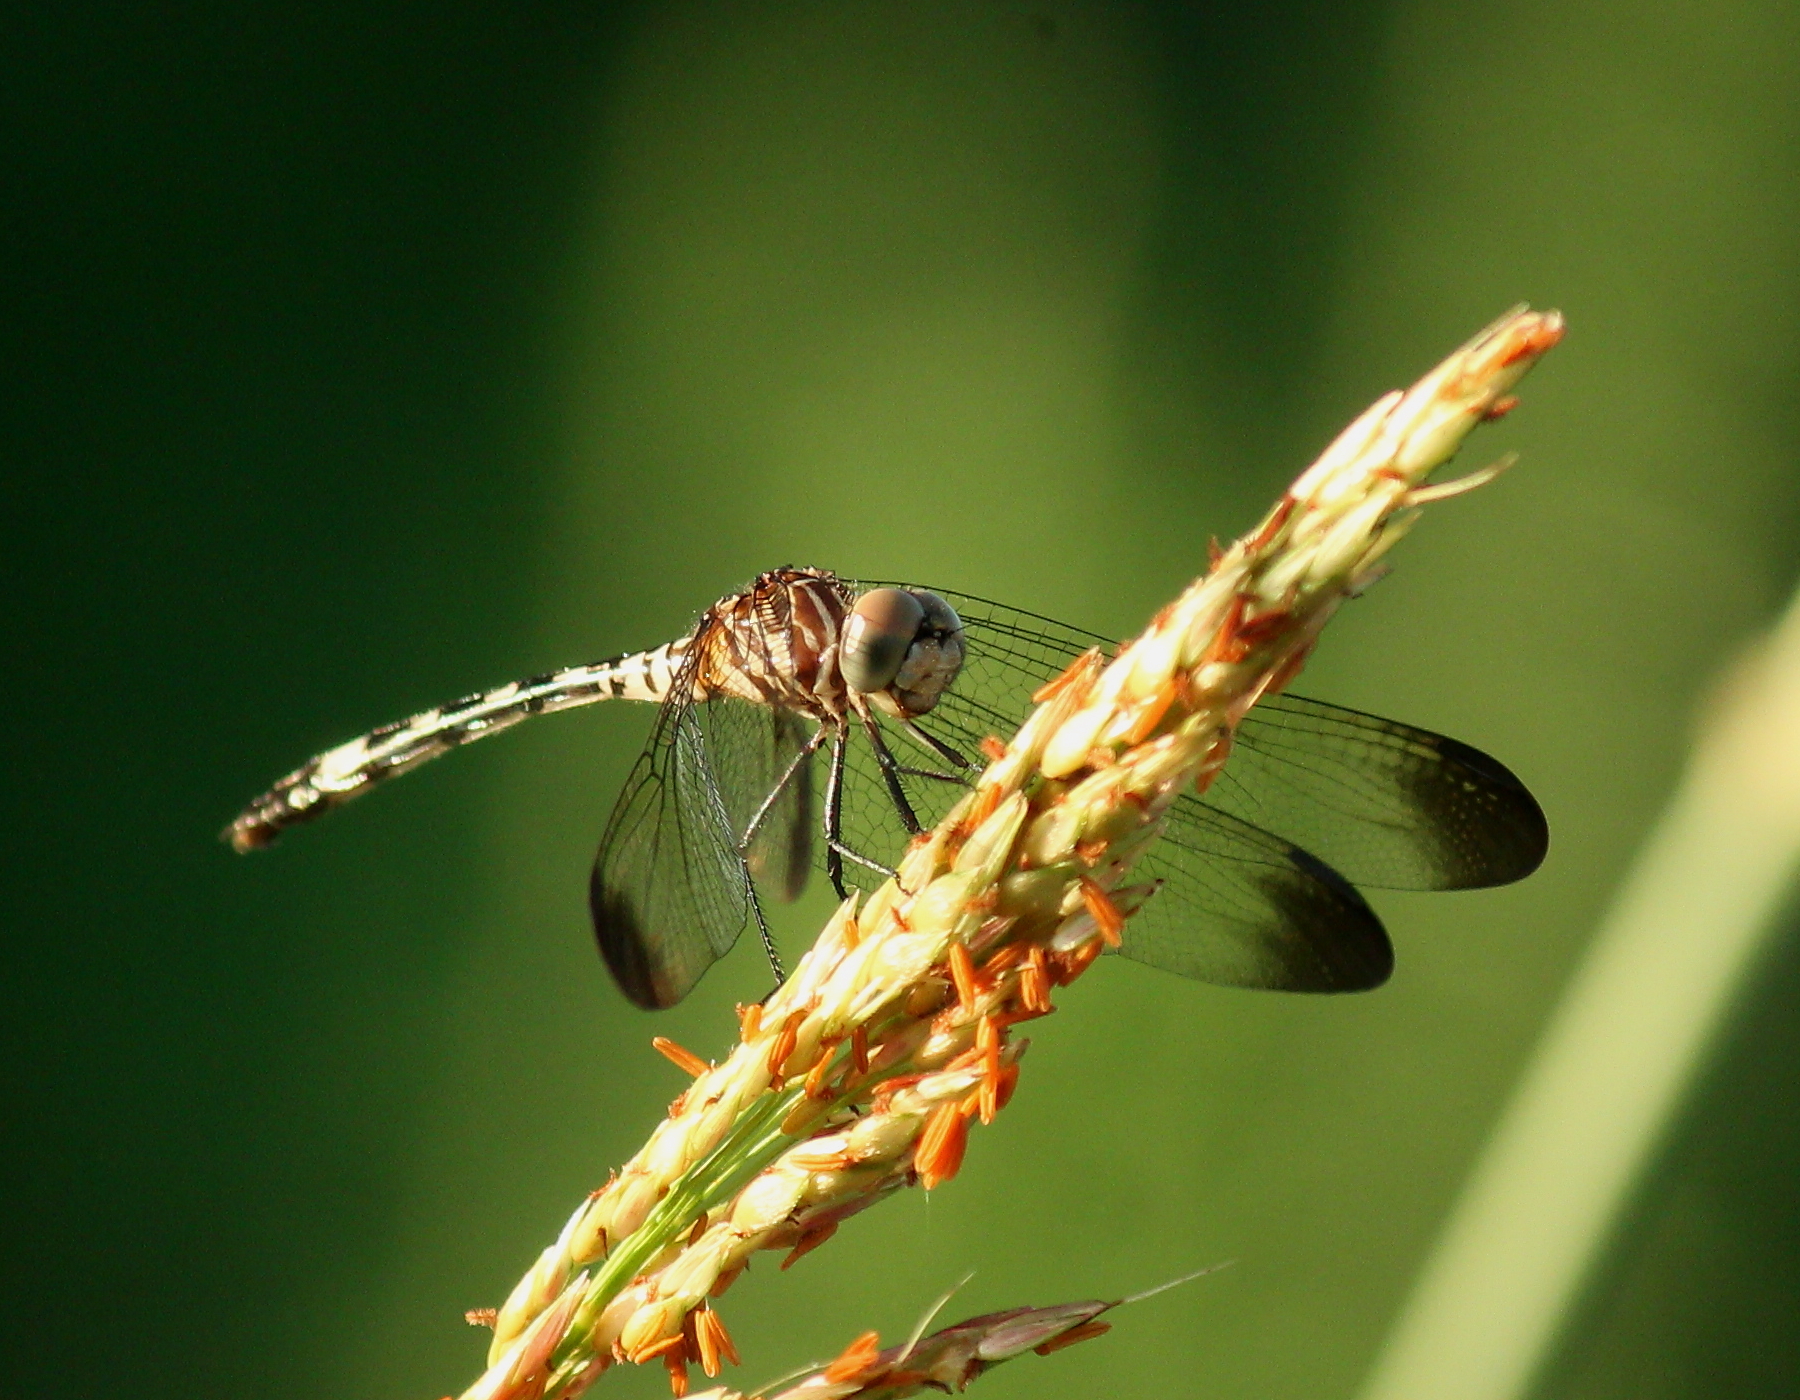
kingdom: Animalia
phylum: Arthropoda
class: Insecta
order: Odonata
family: Libellulidae
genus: Dythemis
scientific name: Dythemis velox
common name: Swift setwing
